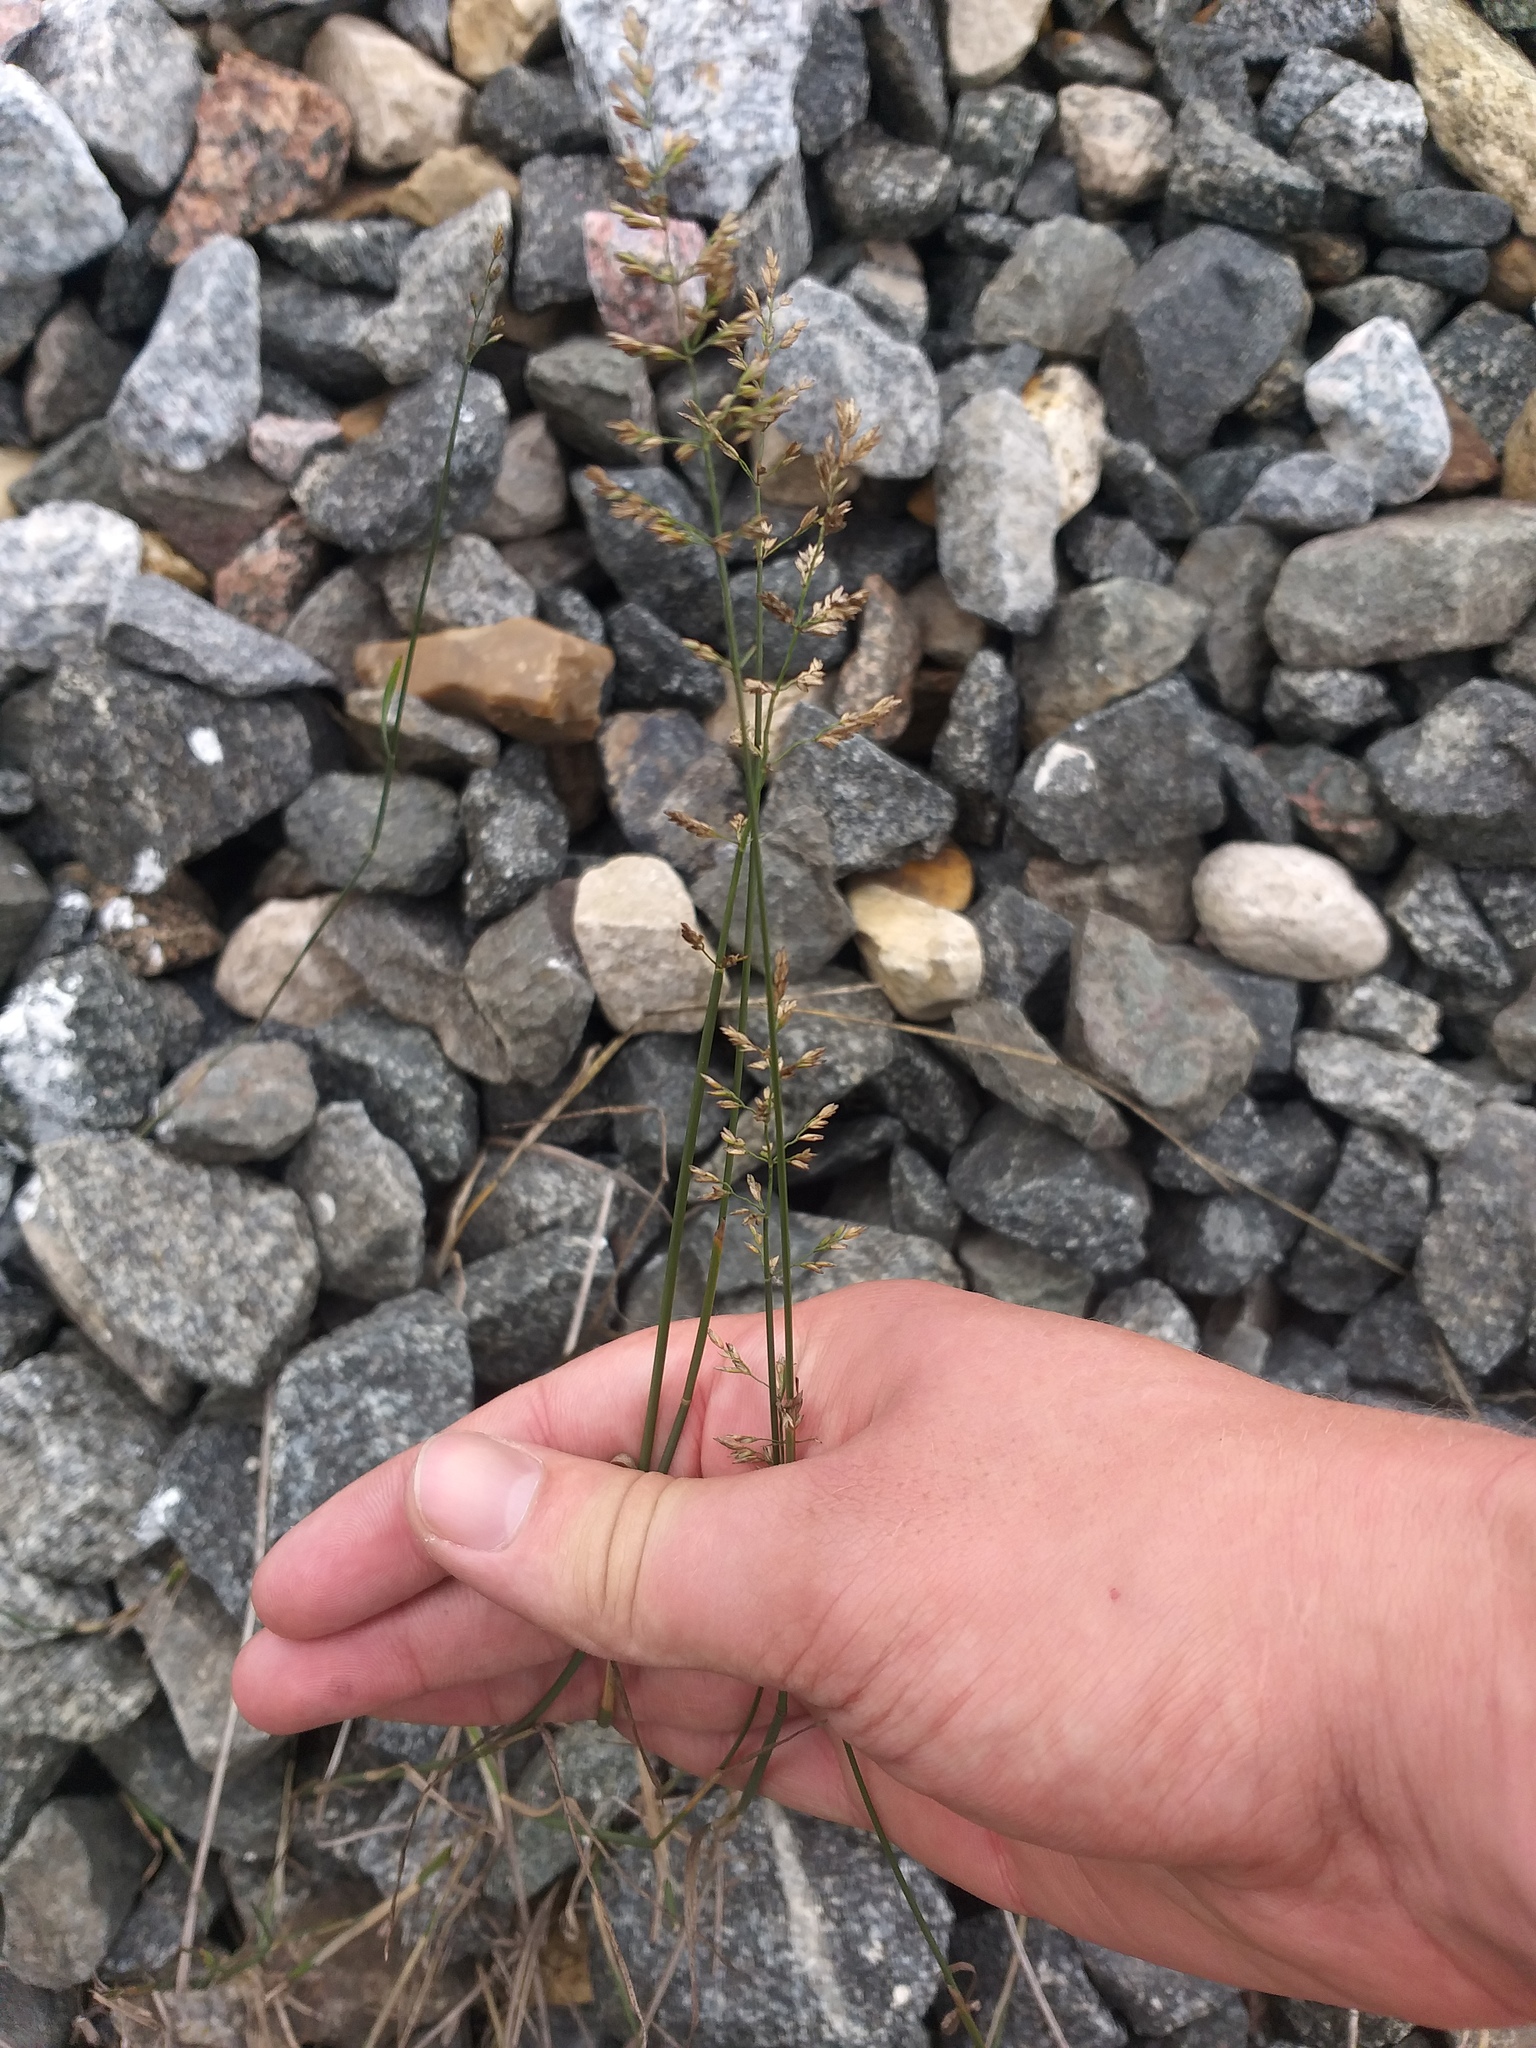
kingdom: Plantae
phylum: Tracheophyta
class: Liliopsida
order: Poales
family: Poaceae
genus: Poa
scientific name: Poa compressa
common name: Canada bluegrass
